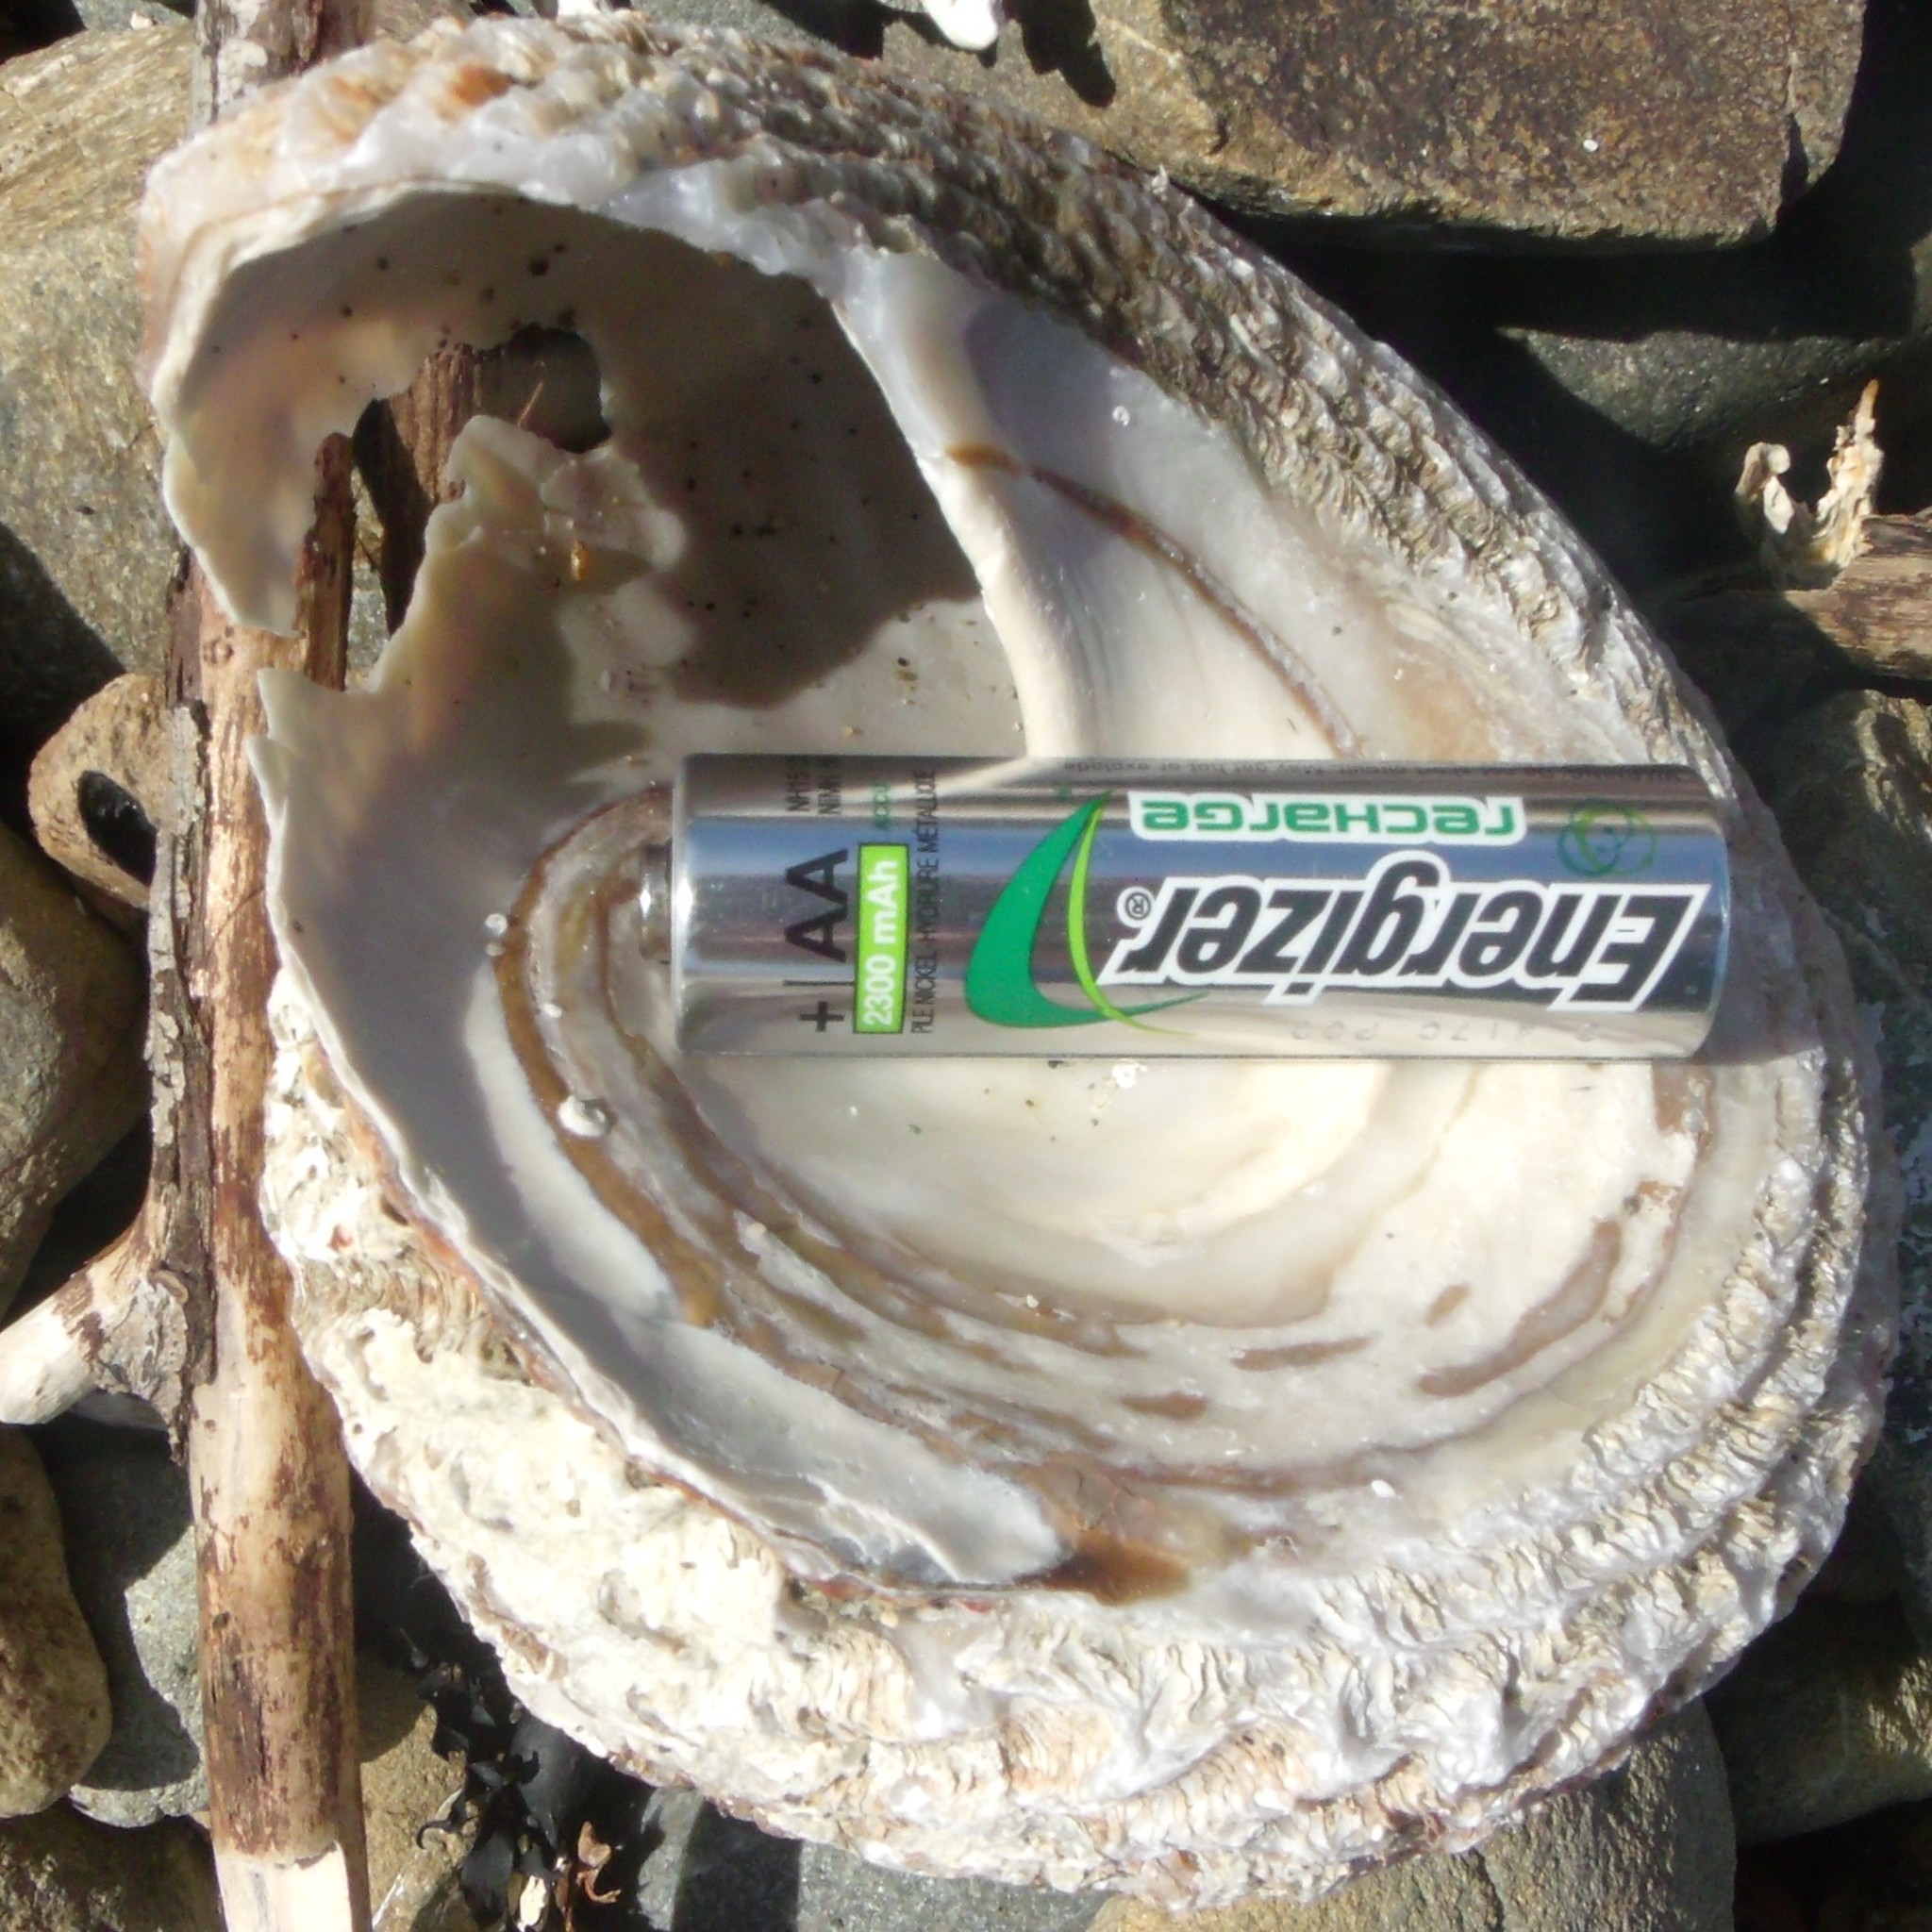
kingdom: Animalia
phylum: Mollusca
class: Gastropoda
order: Trochida
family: Turbinidae
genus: Cookia
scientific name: Cookia sulcata
